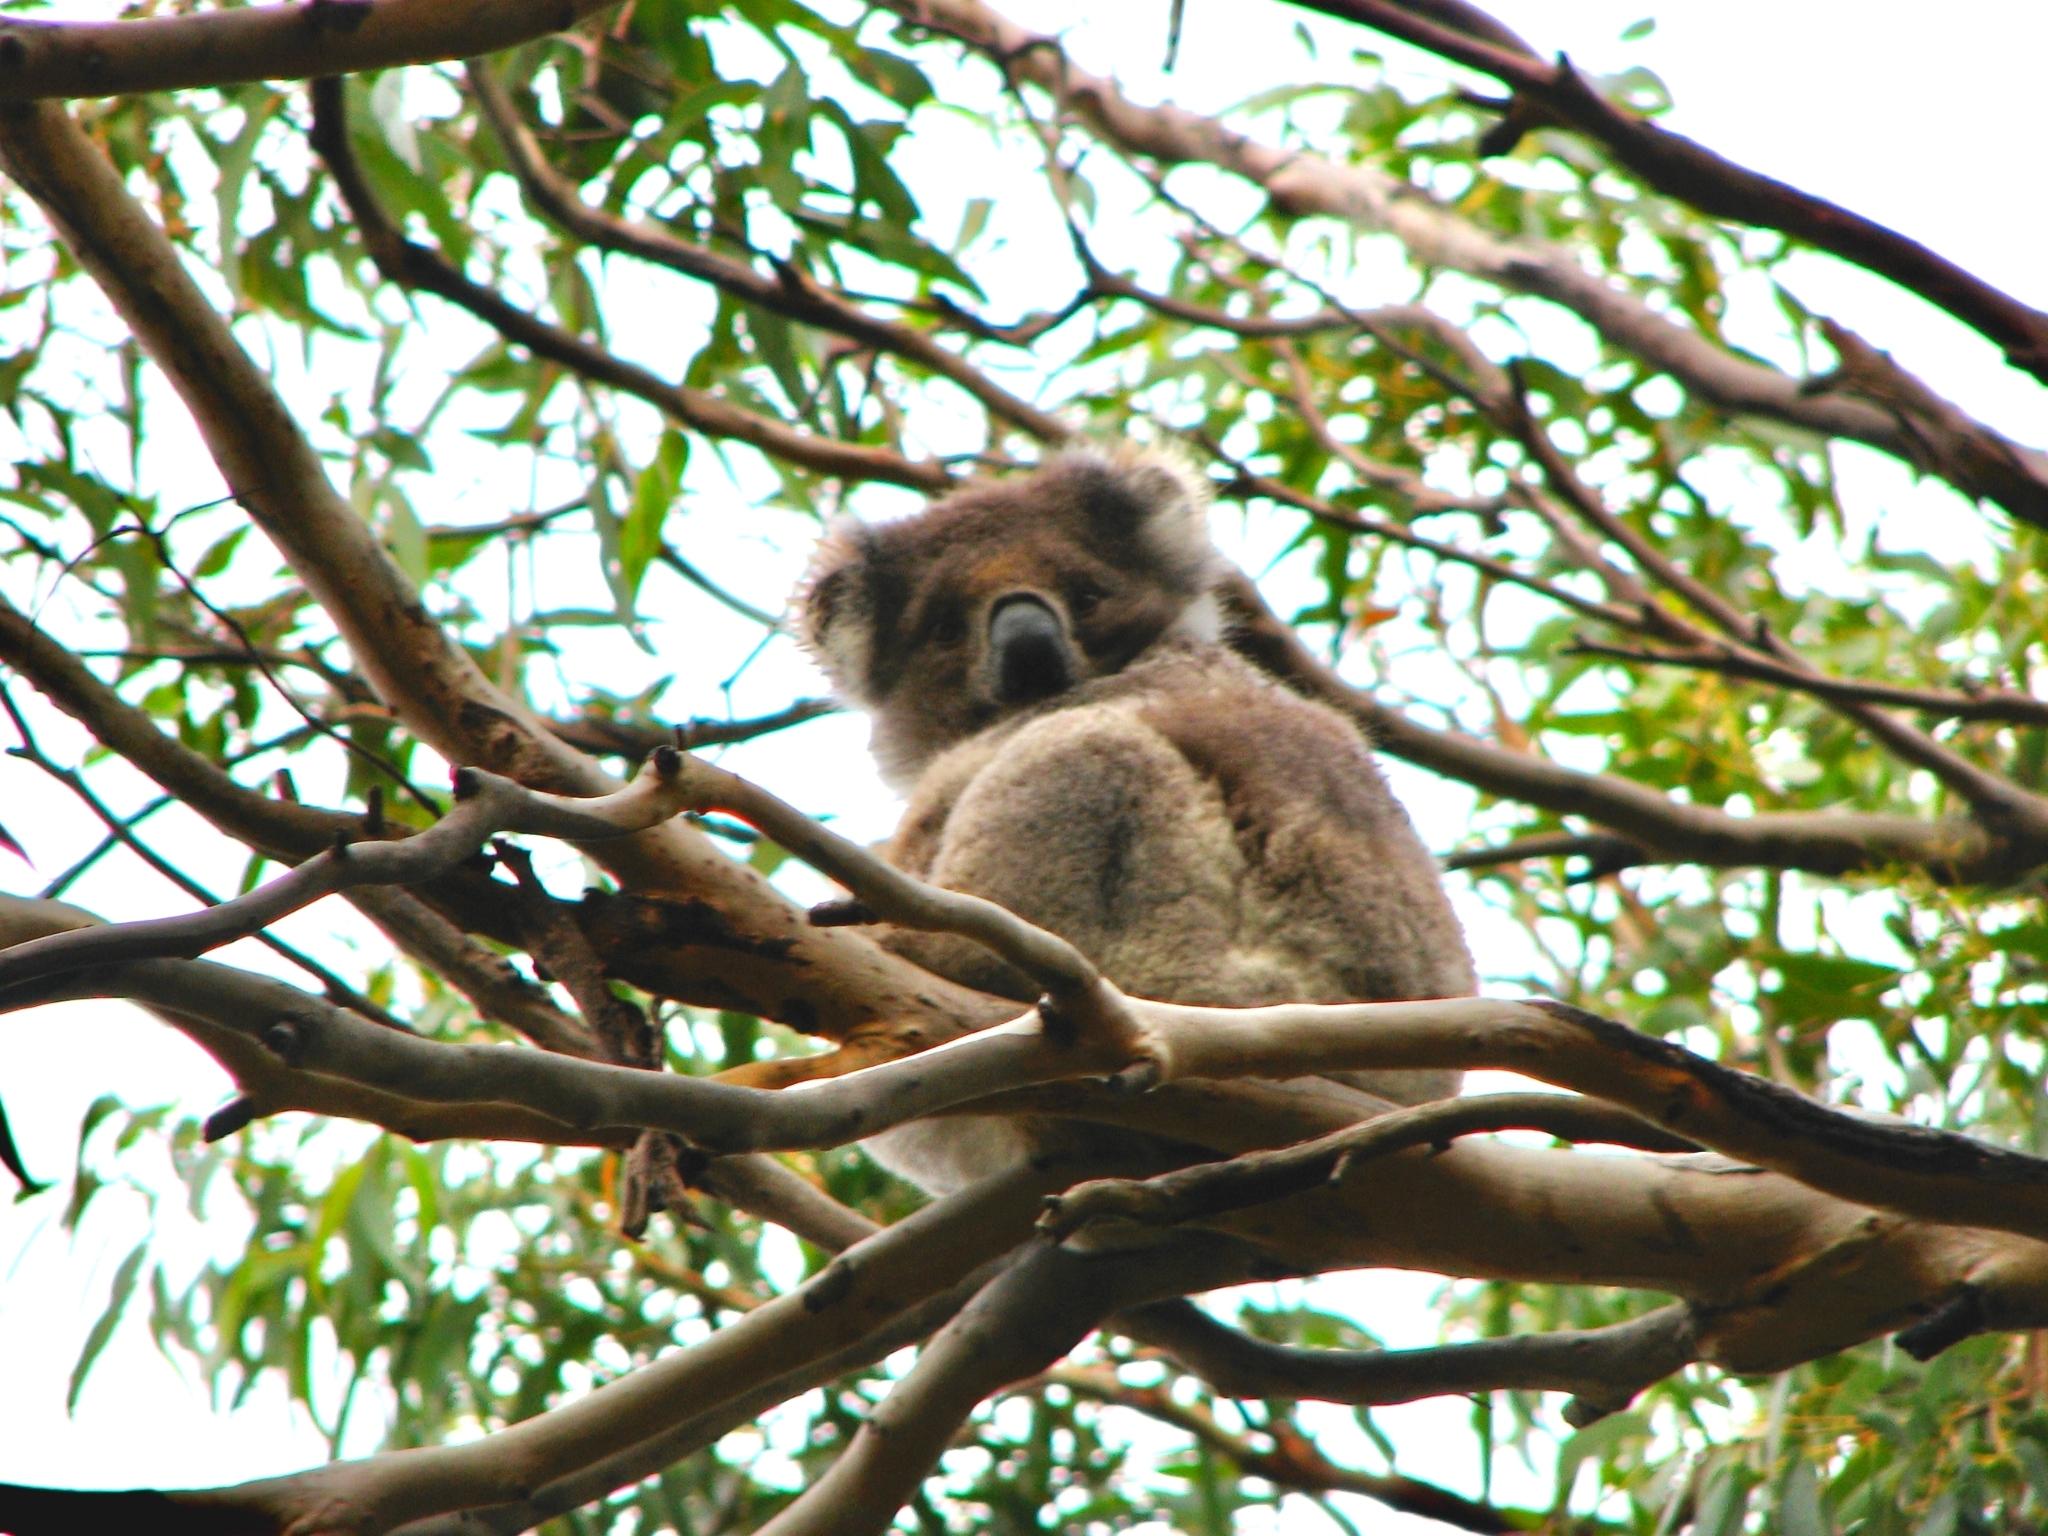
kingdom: Animalia
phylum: Chordata
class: Mammalia
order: Diprotodontia
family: Phascolarctidae
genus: Phascolarctos
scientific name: Phascolarctos cinereus
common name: Koala
